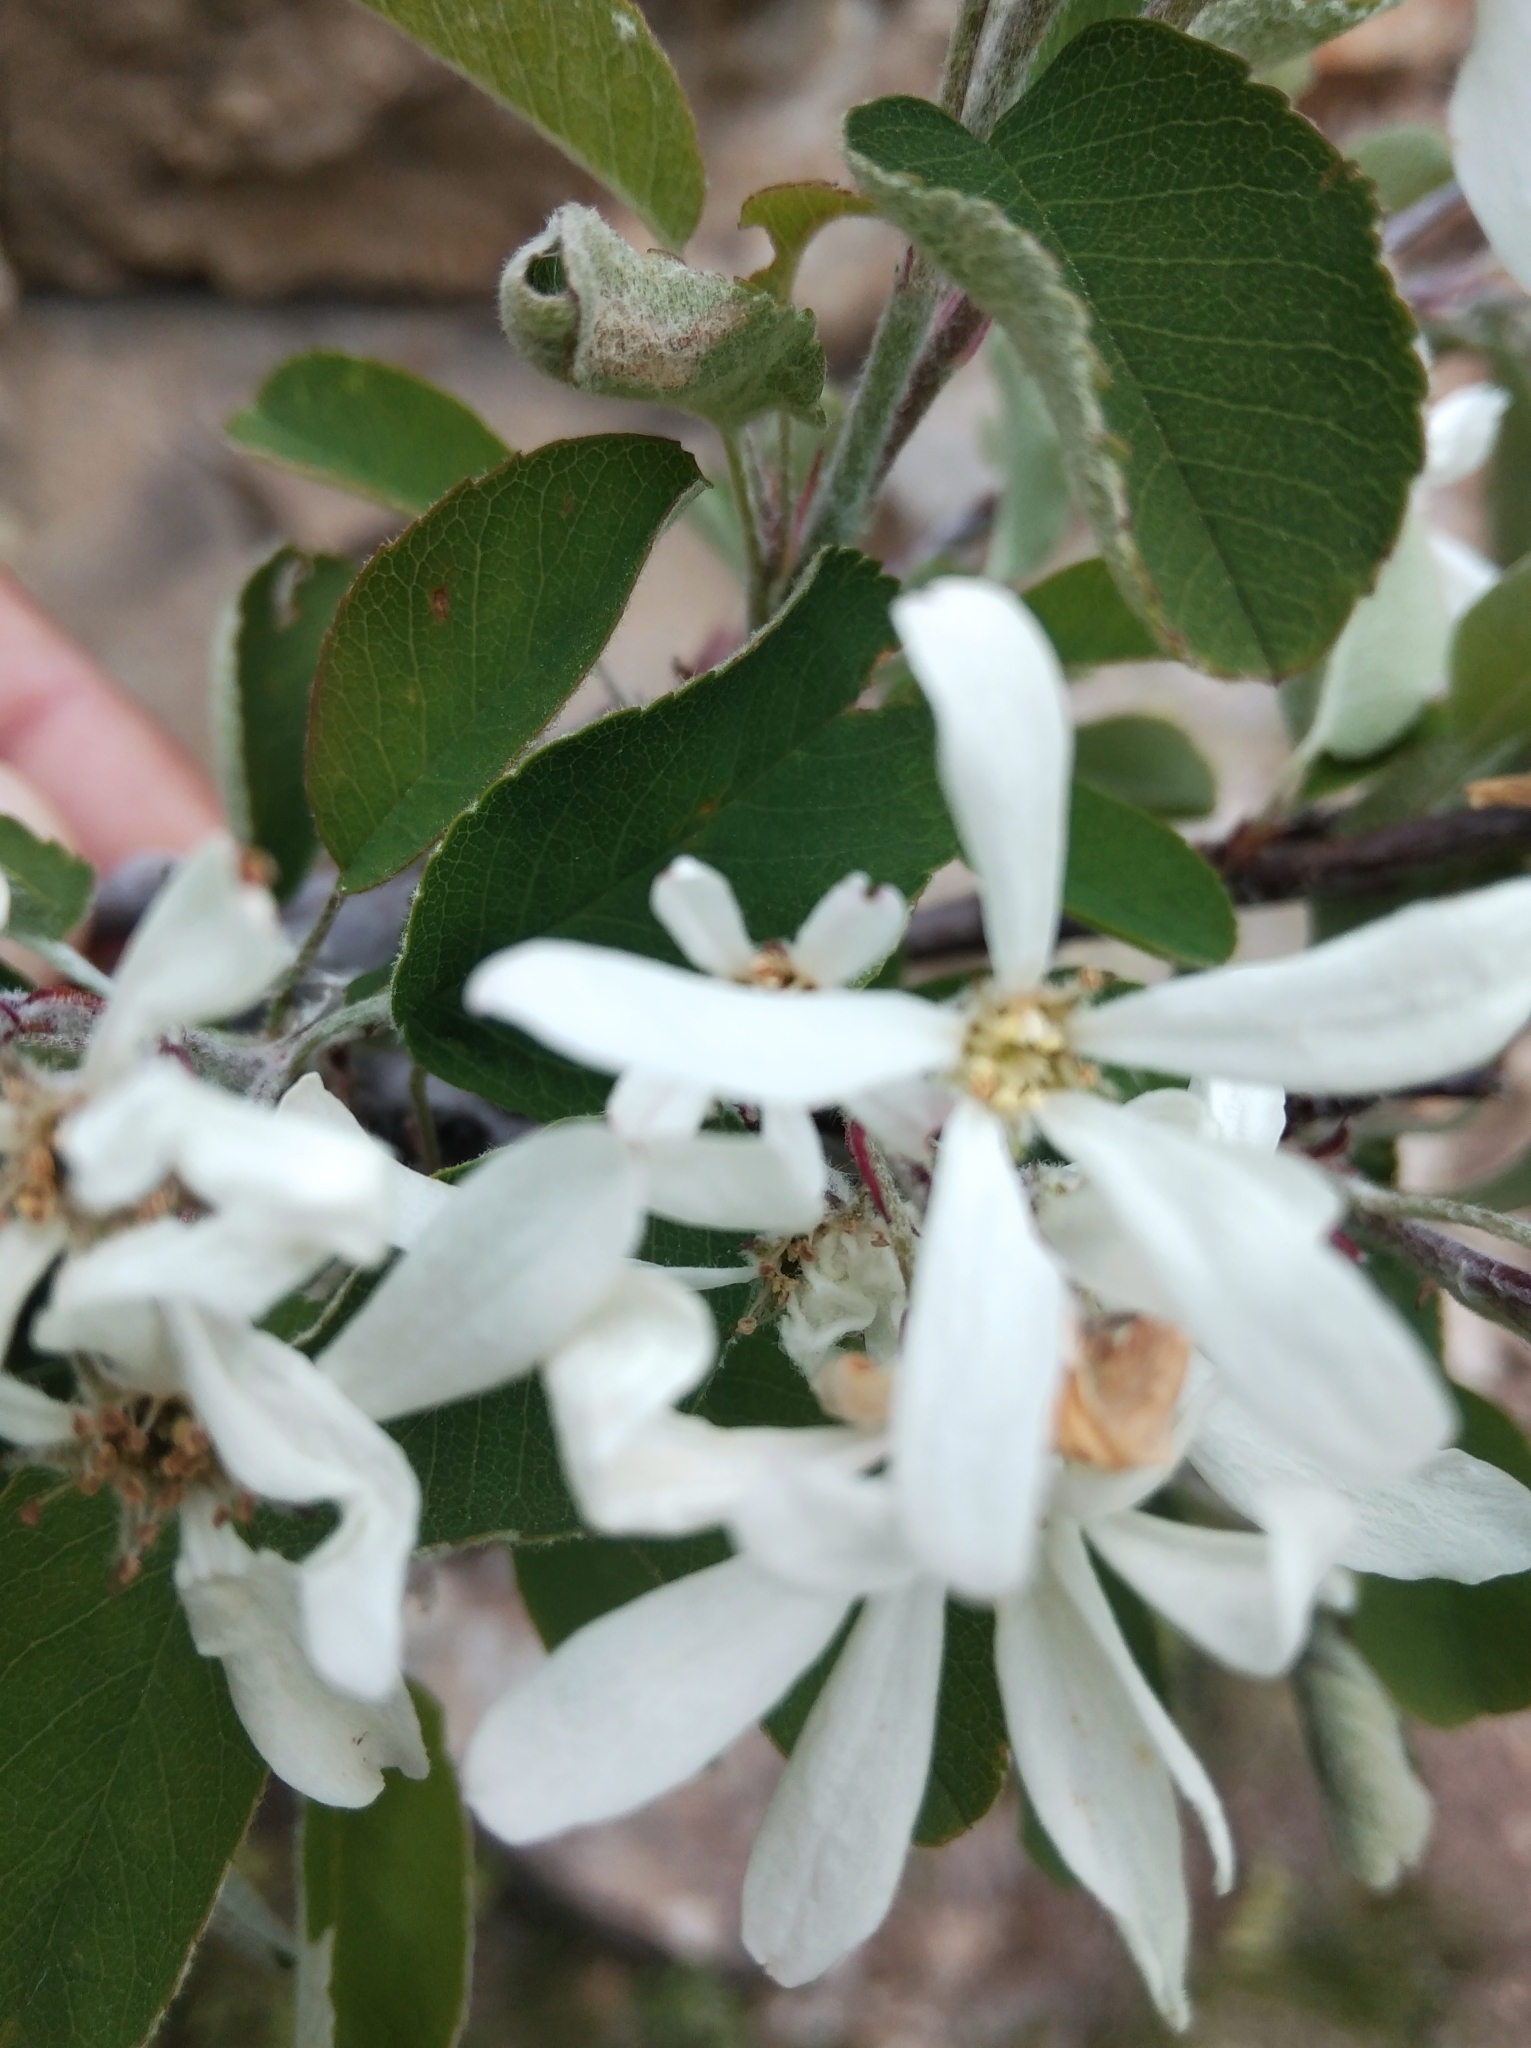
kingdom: Plantae
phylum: Tracheophyta
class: Magnoliopsida
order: Rosales
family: Rosaceae
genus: Amelanchier
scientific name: Amelanchier ovalis
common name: Serviceberry
